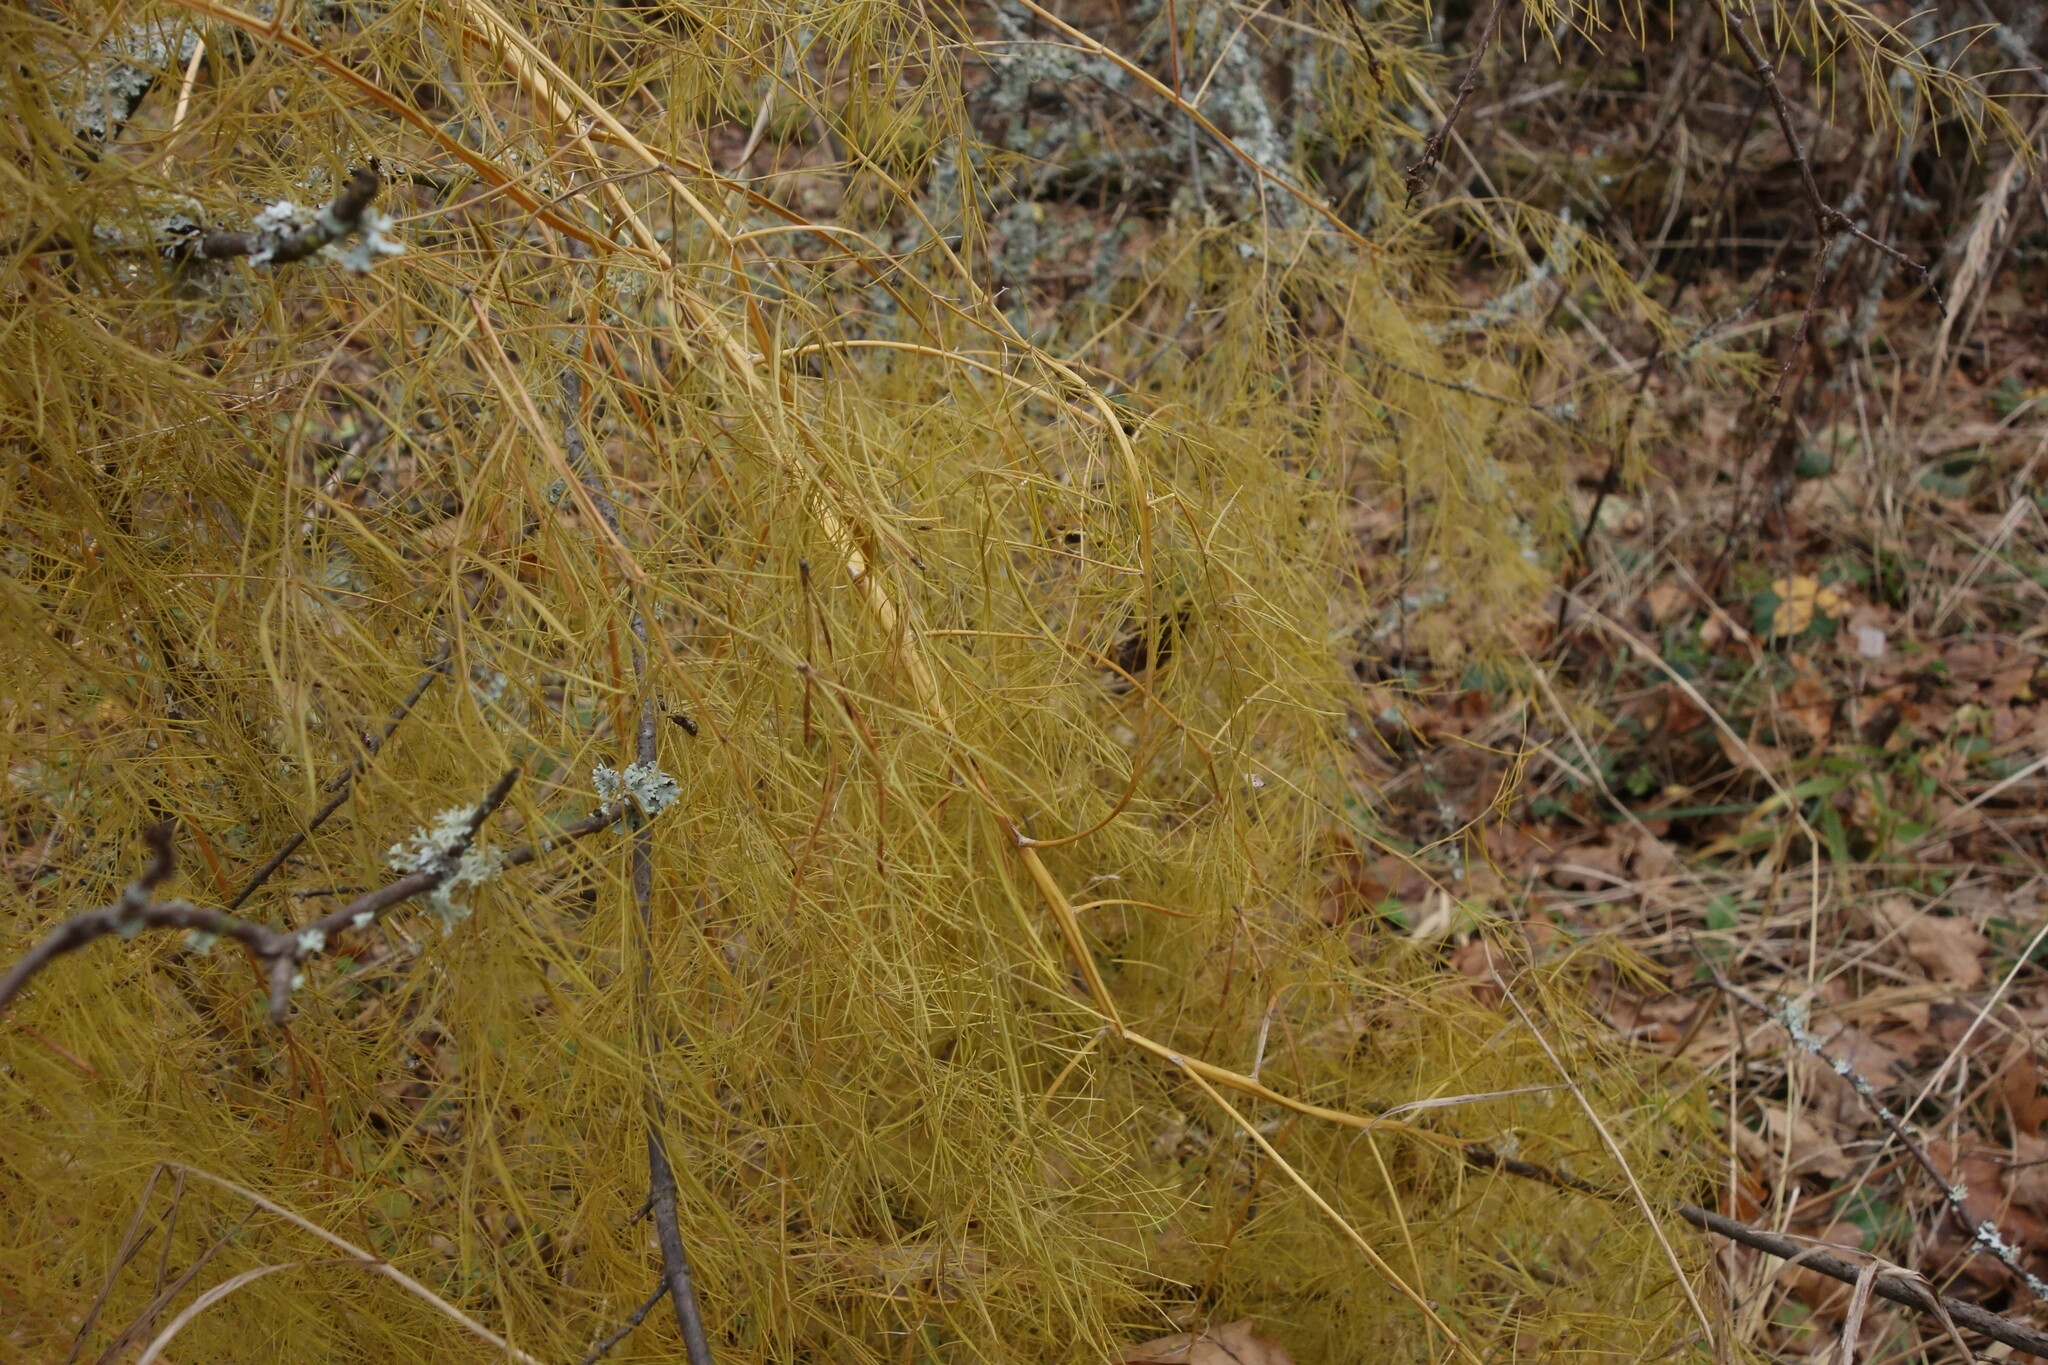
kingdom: Plantae
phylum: Tracheophyta
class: Liliopsida
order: Asparagales
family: Asparagaceae
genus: Asparagus
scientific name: Asparagus officinalis
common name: Garden asparagus
